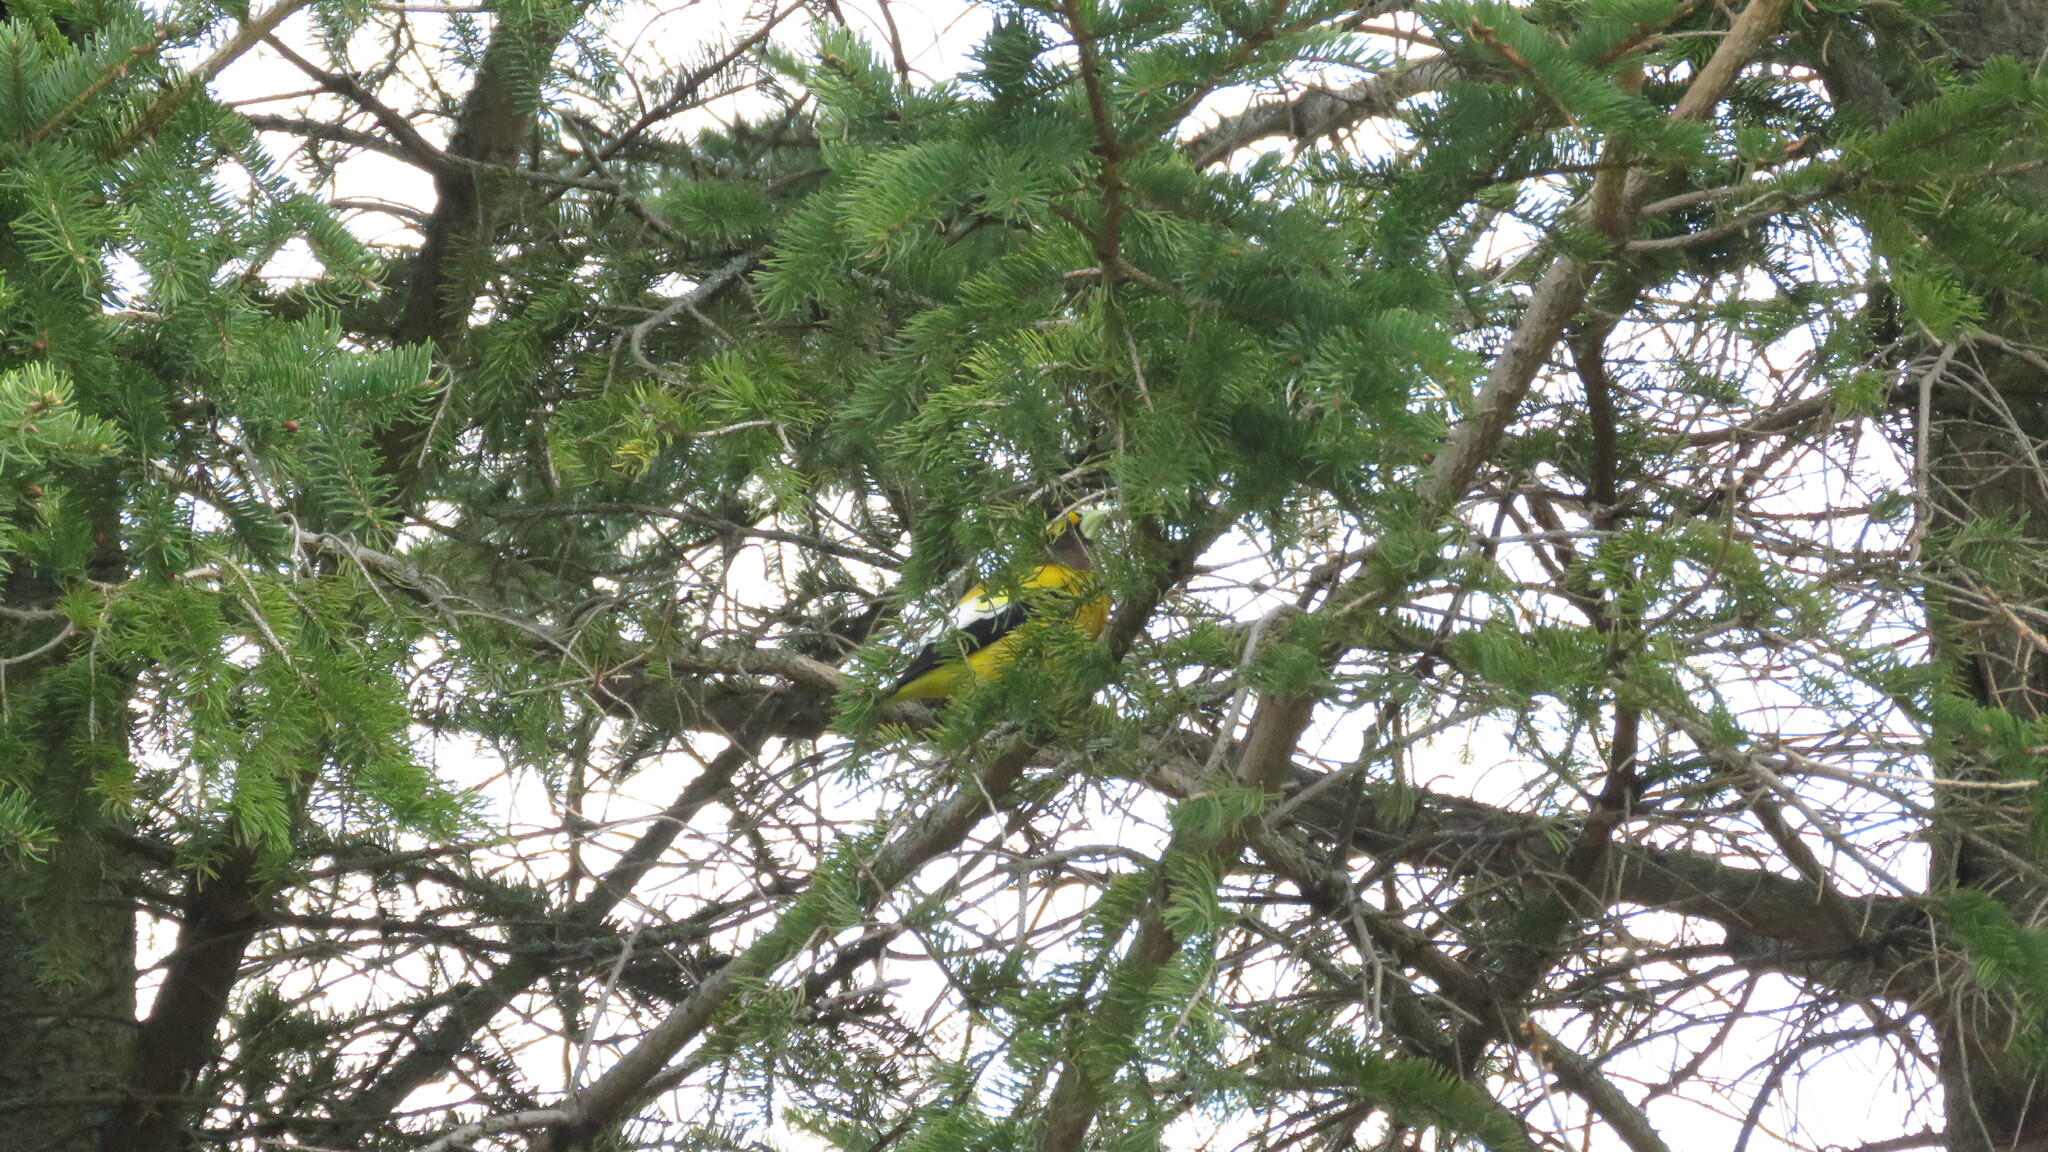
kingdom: Animalia
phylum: Chordata
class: Aves
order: Passeriformes
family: Fringillidae
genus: Hesperiphona
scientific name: Hesperiphona vespertina
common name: Evening grosbeak
